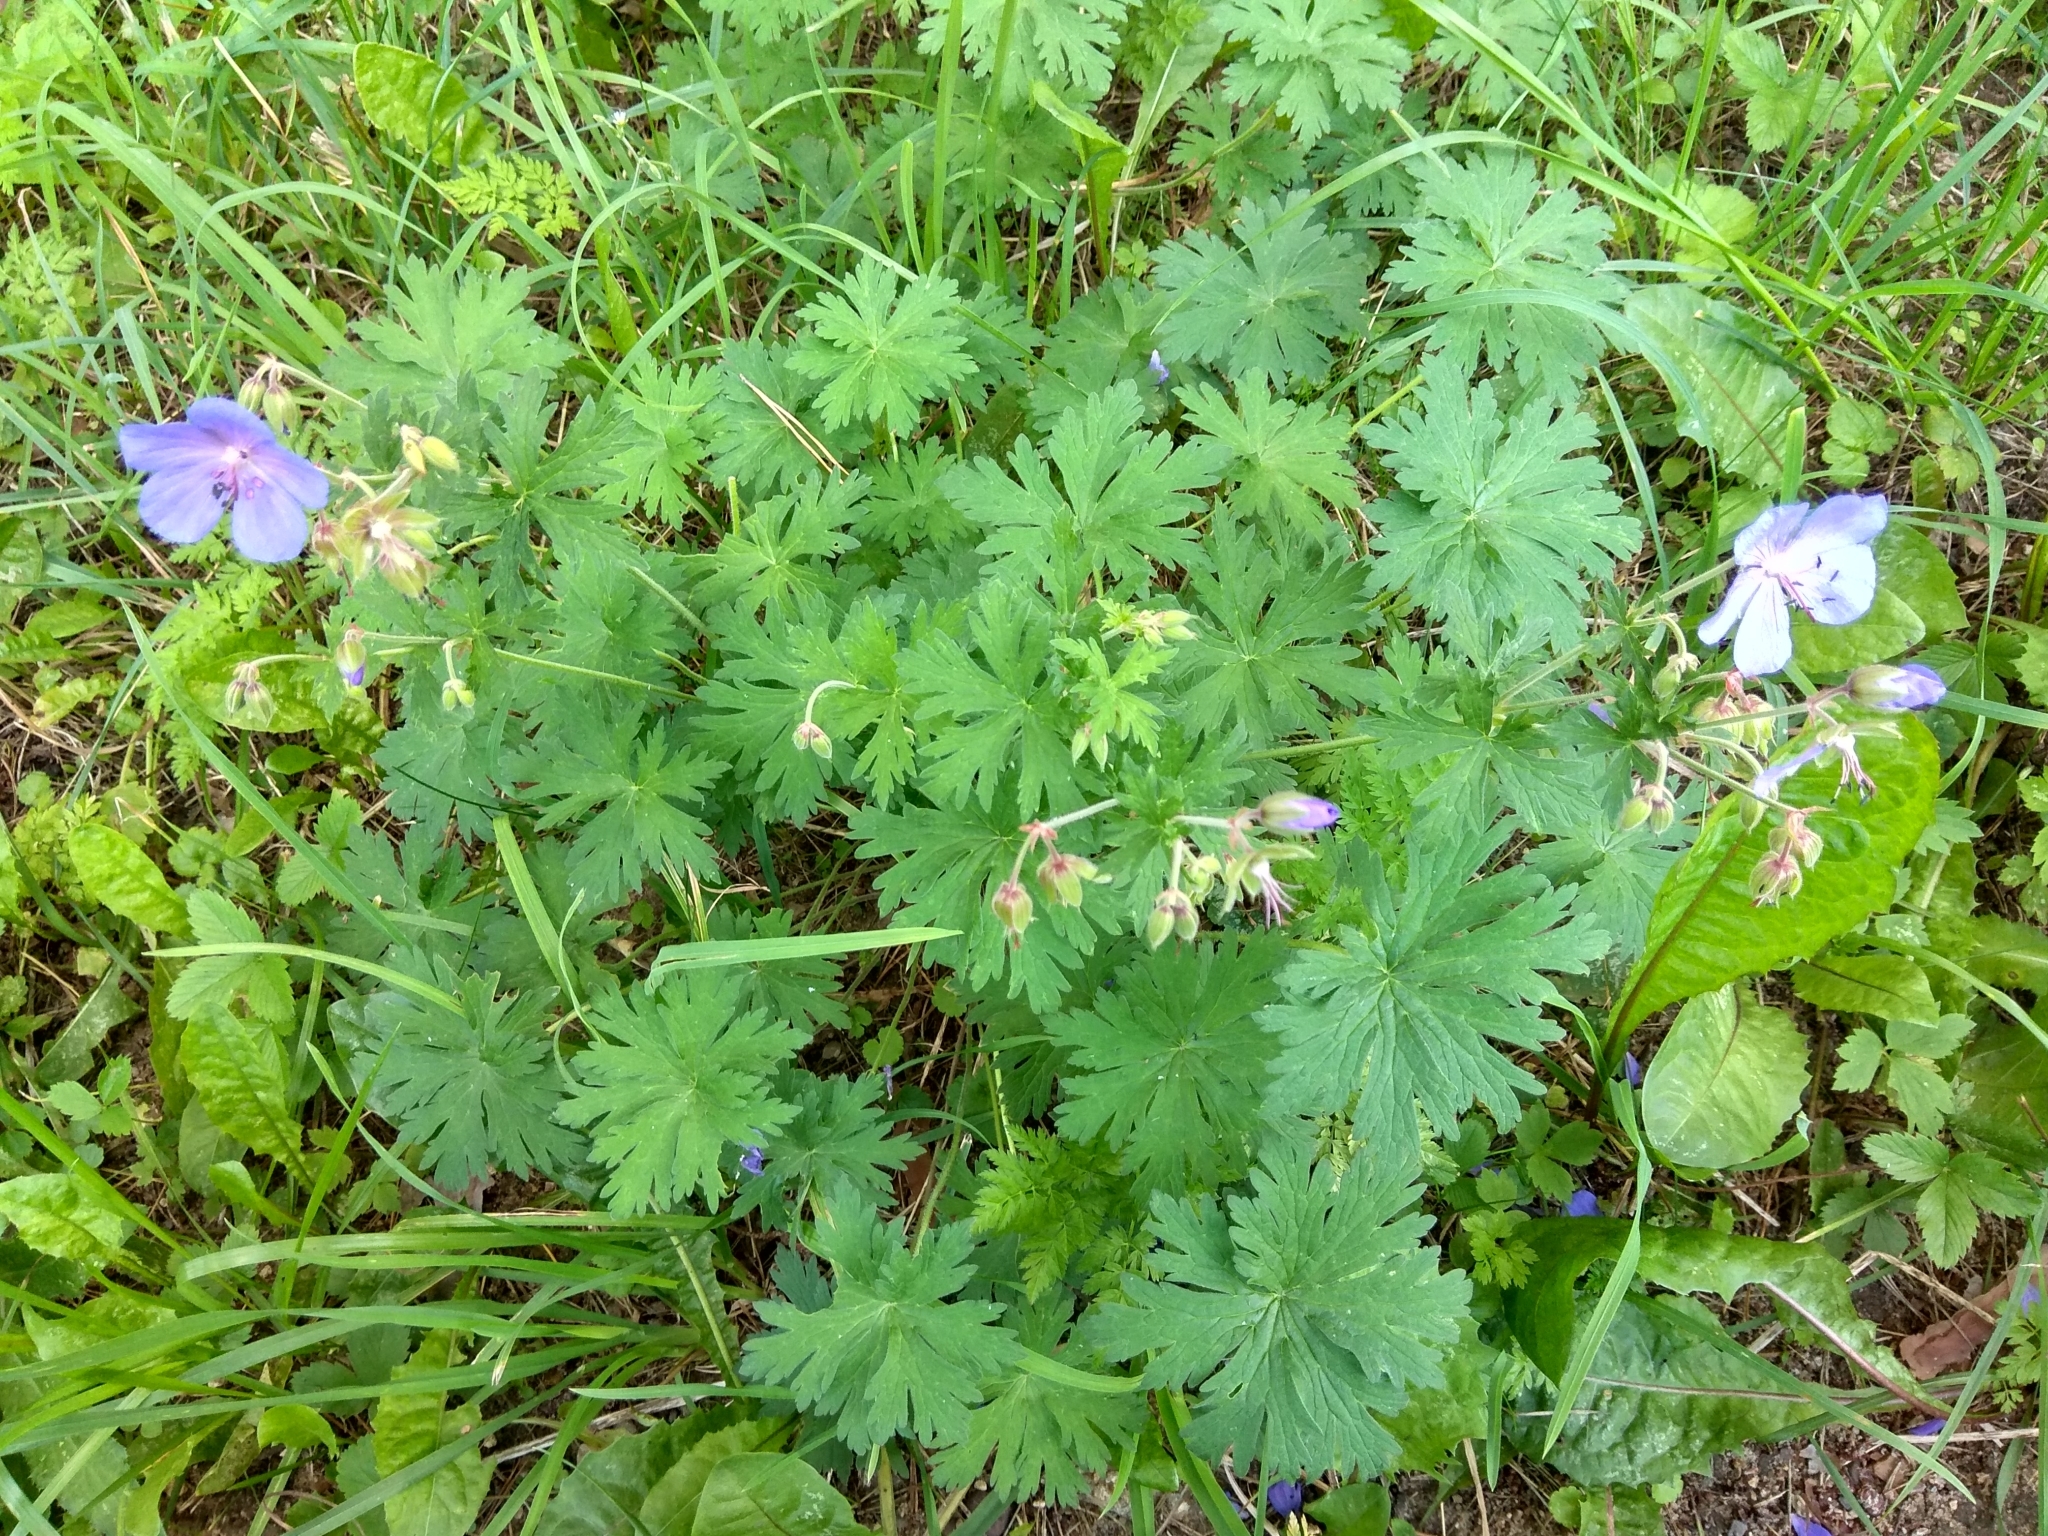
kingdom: Plantae
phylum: Tracheophyta
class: Magnoliopsida
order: Geraniales
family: Geraniaceae
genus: Geranium
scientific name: Geranium pratense
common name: Meadow crane's-bill
